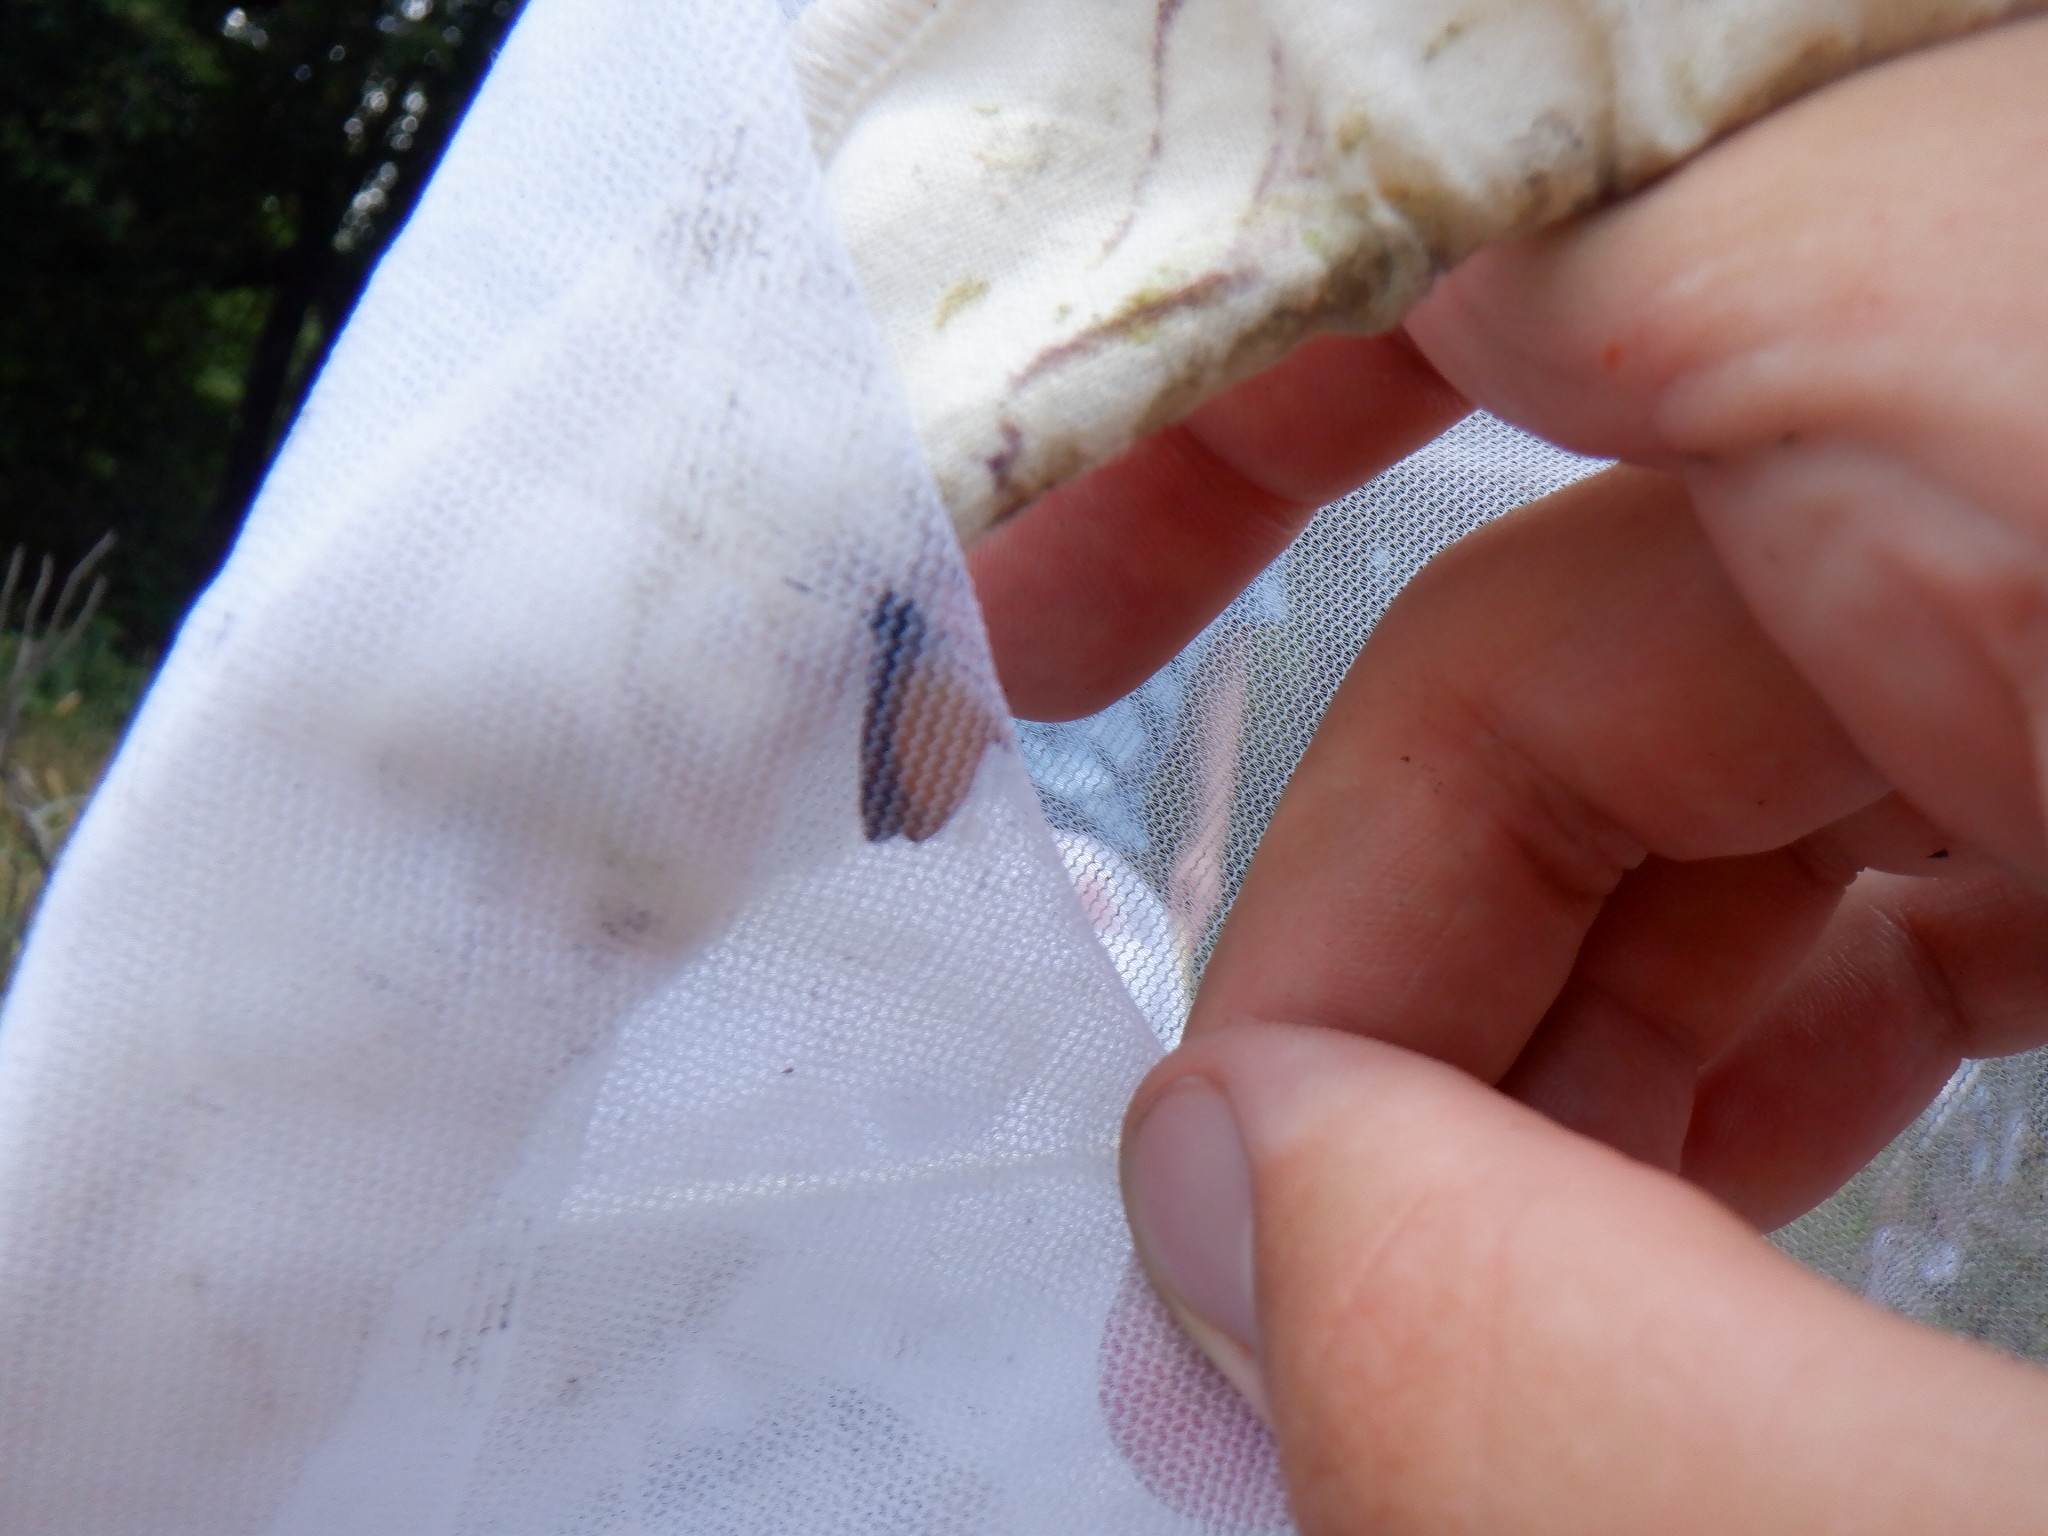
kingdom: Animalia
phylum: Arthropoda
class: Insecta
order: Lepidoptera
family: Hesperiidae
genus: Ancyloxypha
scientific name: Ancyloxypha numitor
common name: Least skipper
